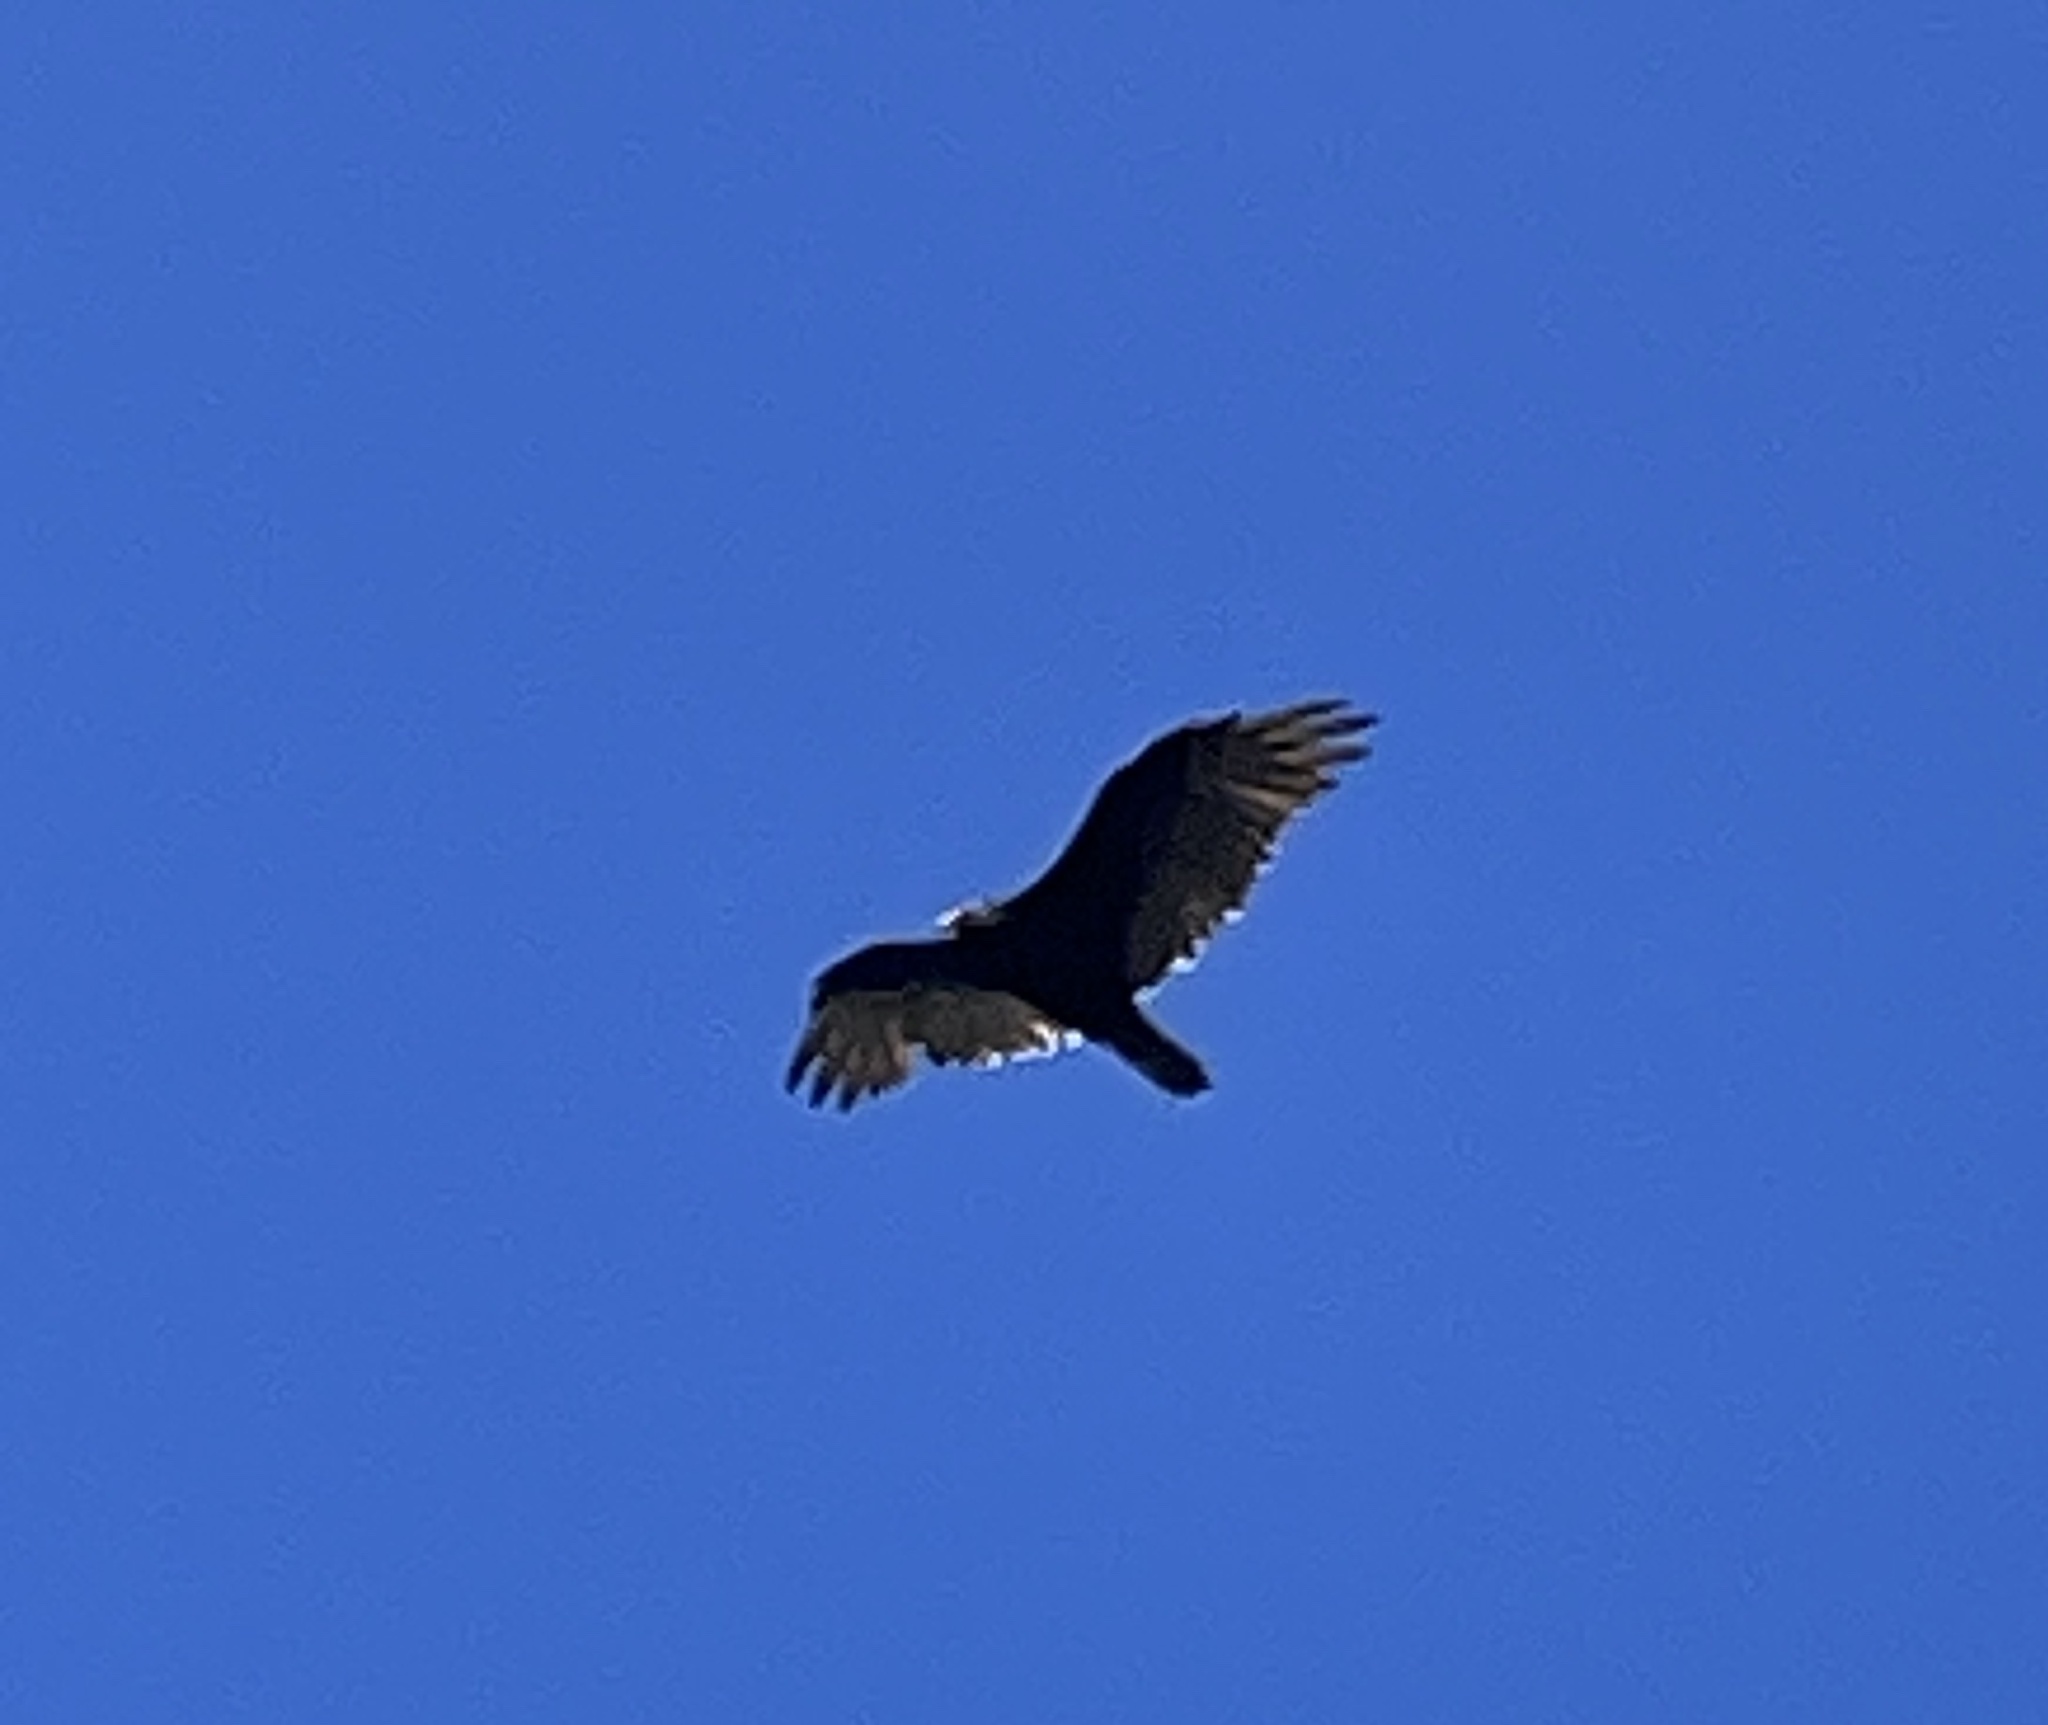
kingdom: Animalia
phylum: Chordata
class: Aves
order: Accipitriformes
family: Cathartidae
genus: Cathartes
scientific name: Cathartes aura
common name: Turkey vulture
